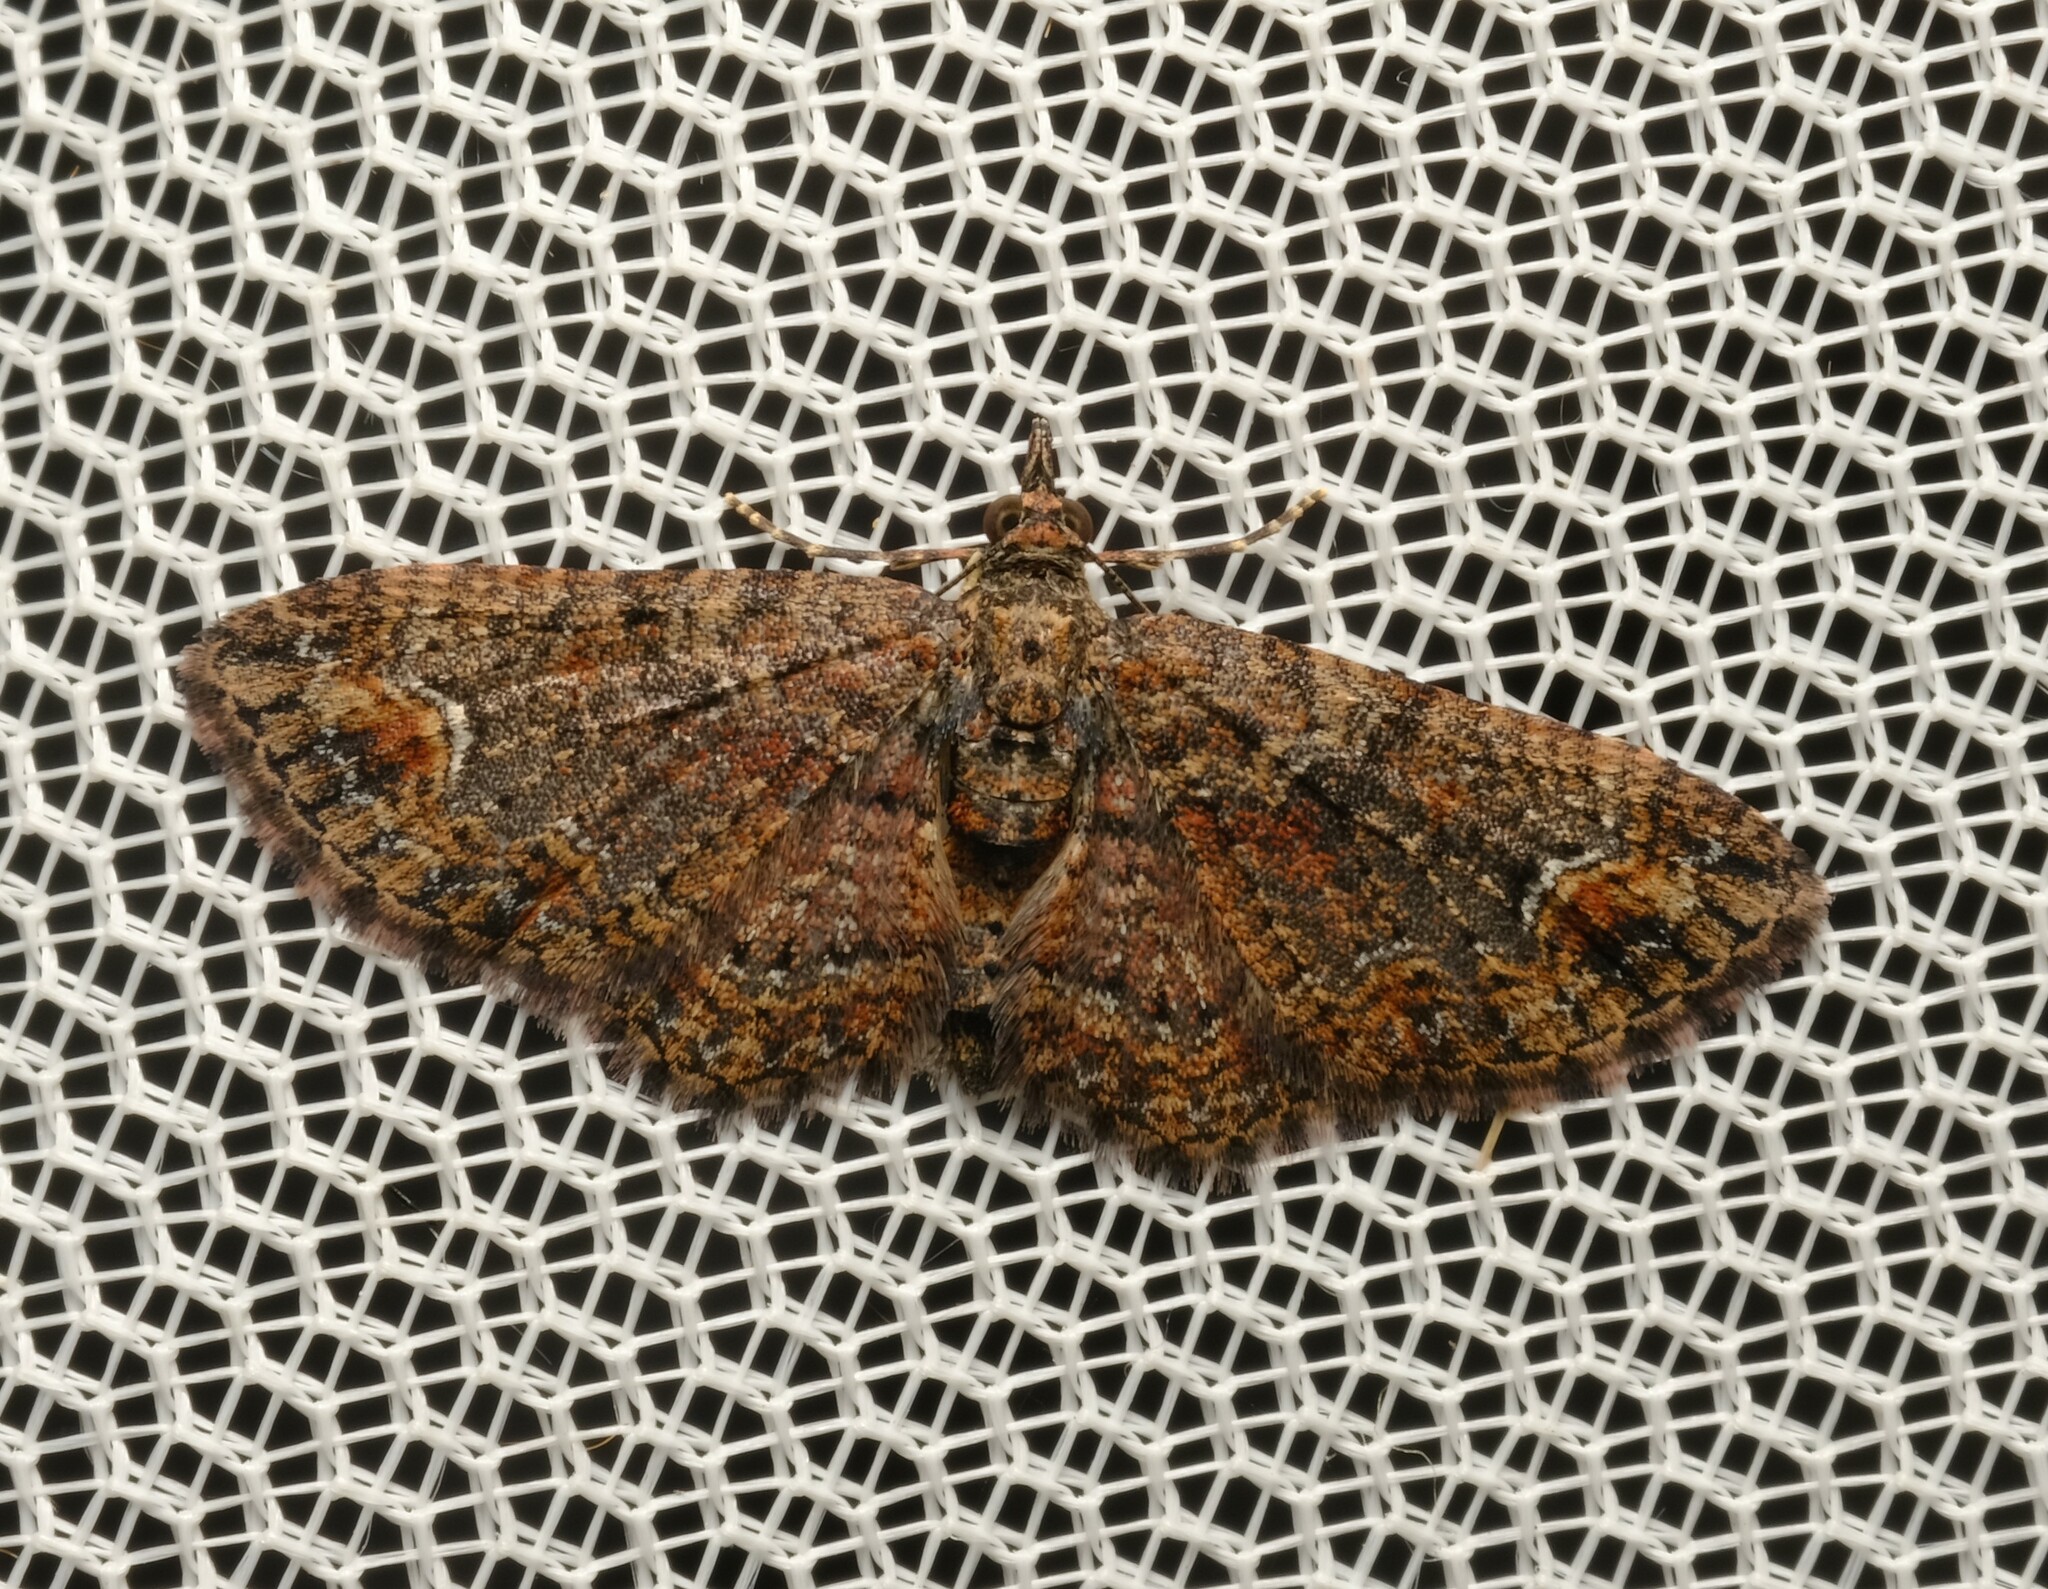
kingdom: Animalia
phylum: Arthropoda
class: Insecta
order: Lepidoptera
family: Geometridae
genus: Pasiphilodes
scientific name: Pasiphilodes testulata
